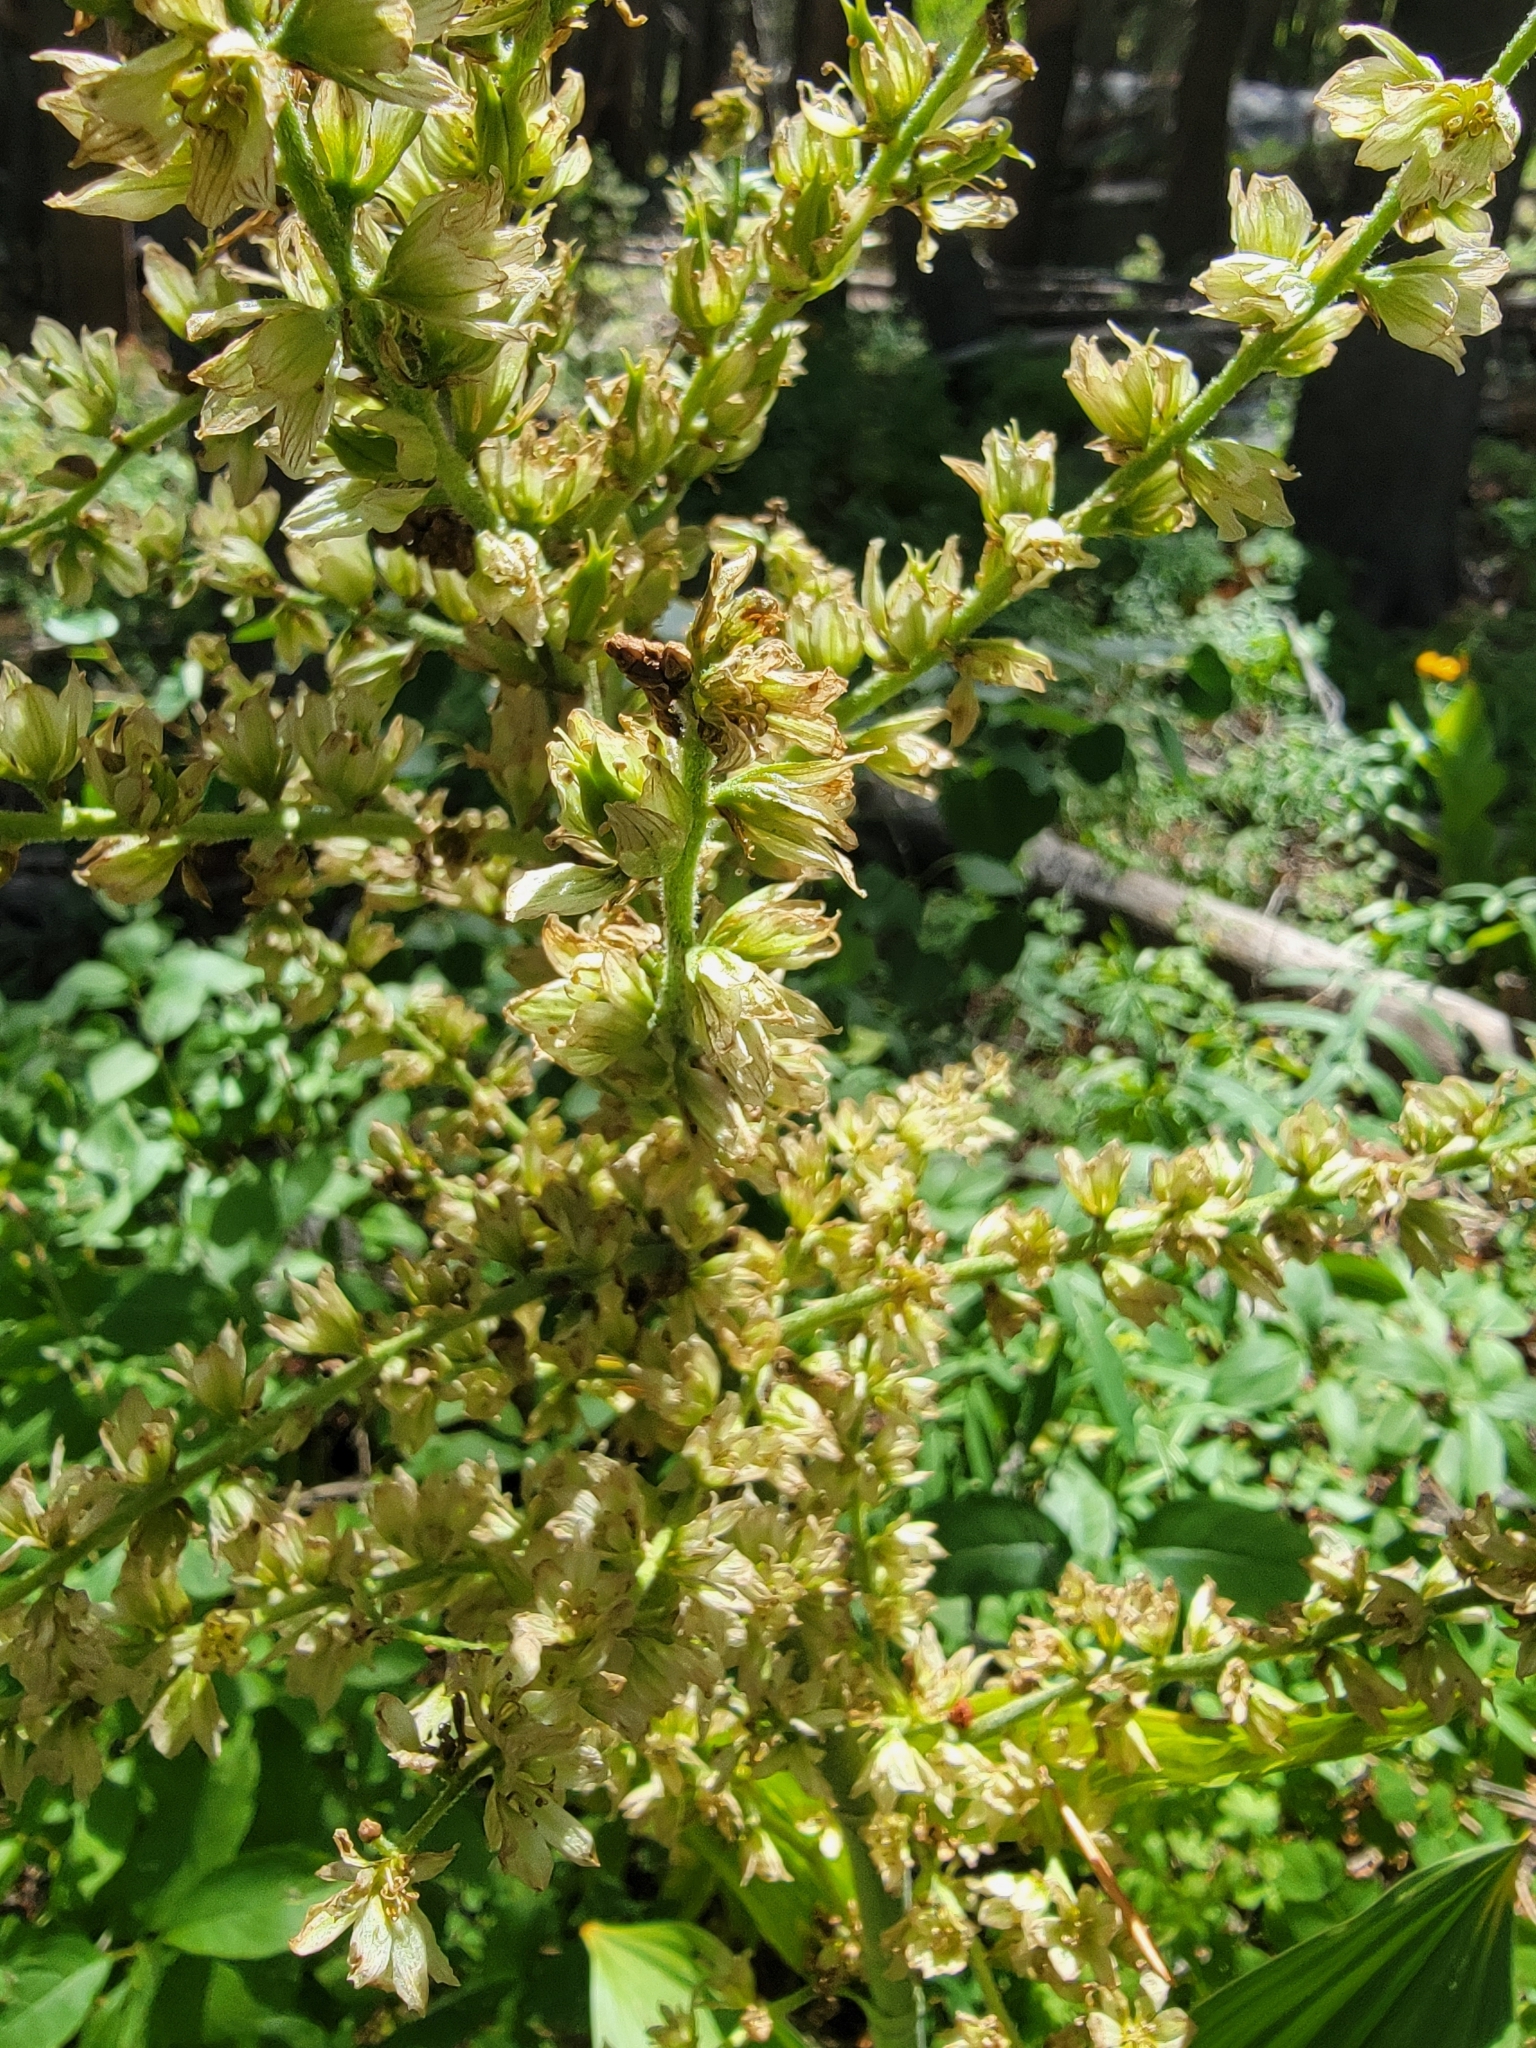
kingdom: Plantae
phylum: Tracheophyta
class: Liliopsida
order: Liliales
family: Melanthiaceae
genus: Veratrum
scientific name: Veratrum californicum
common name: California veratrum
